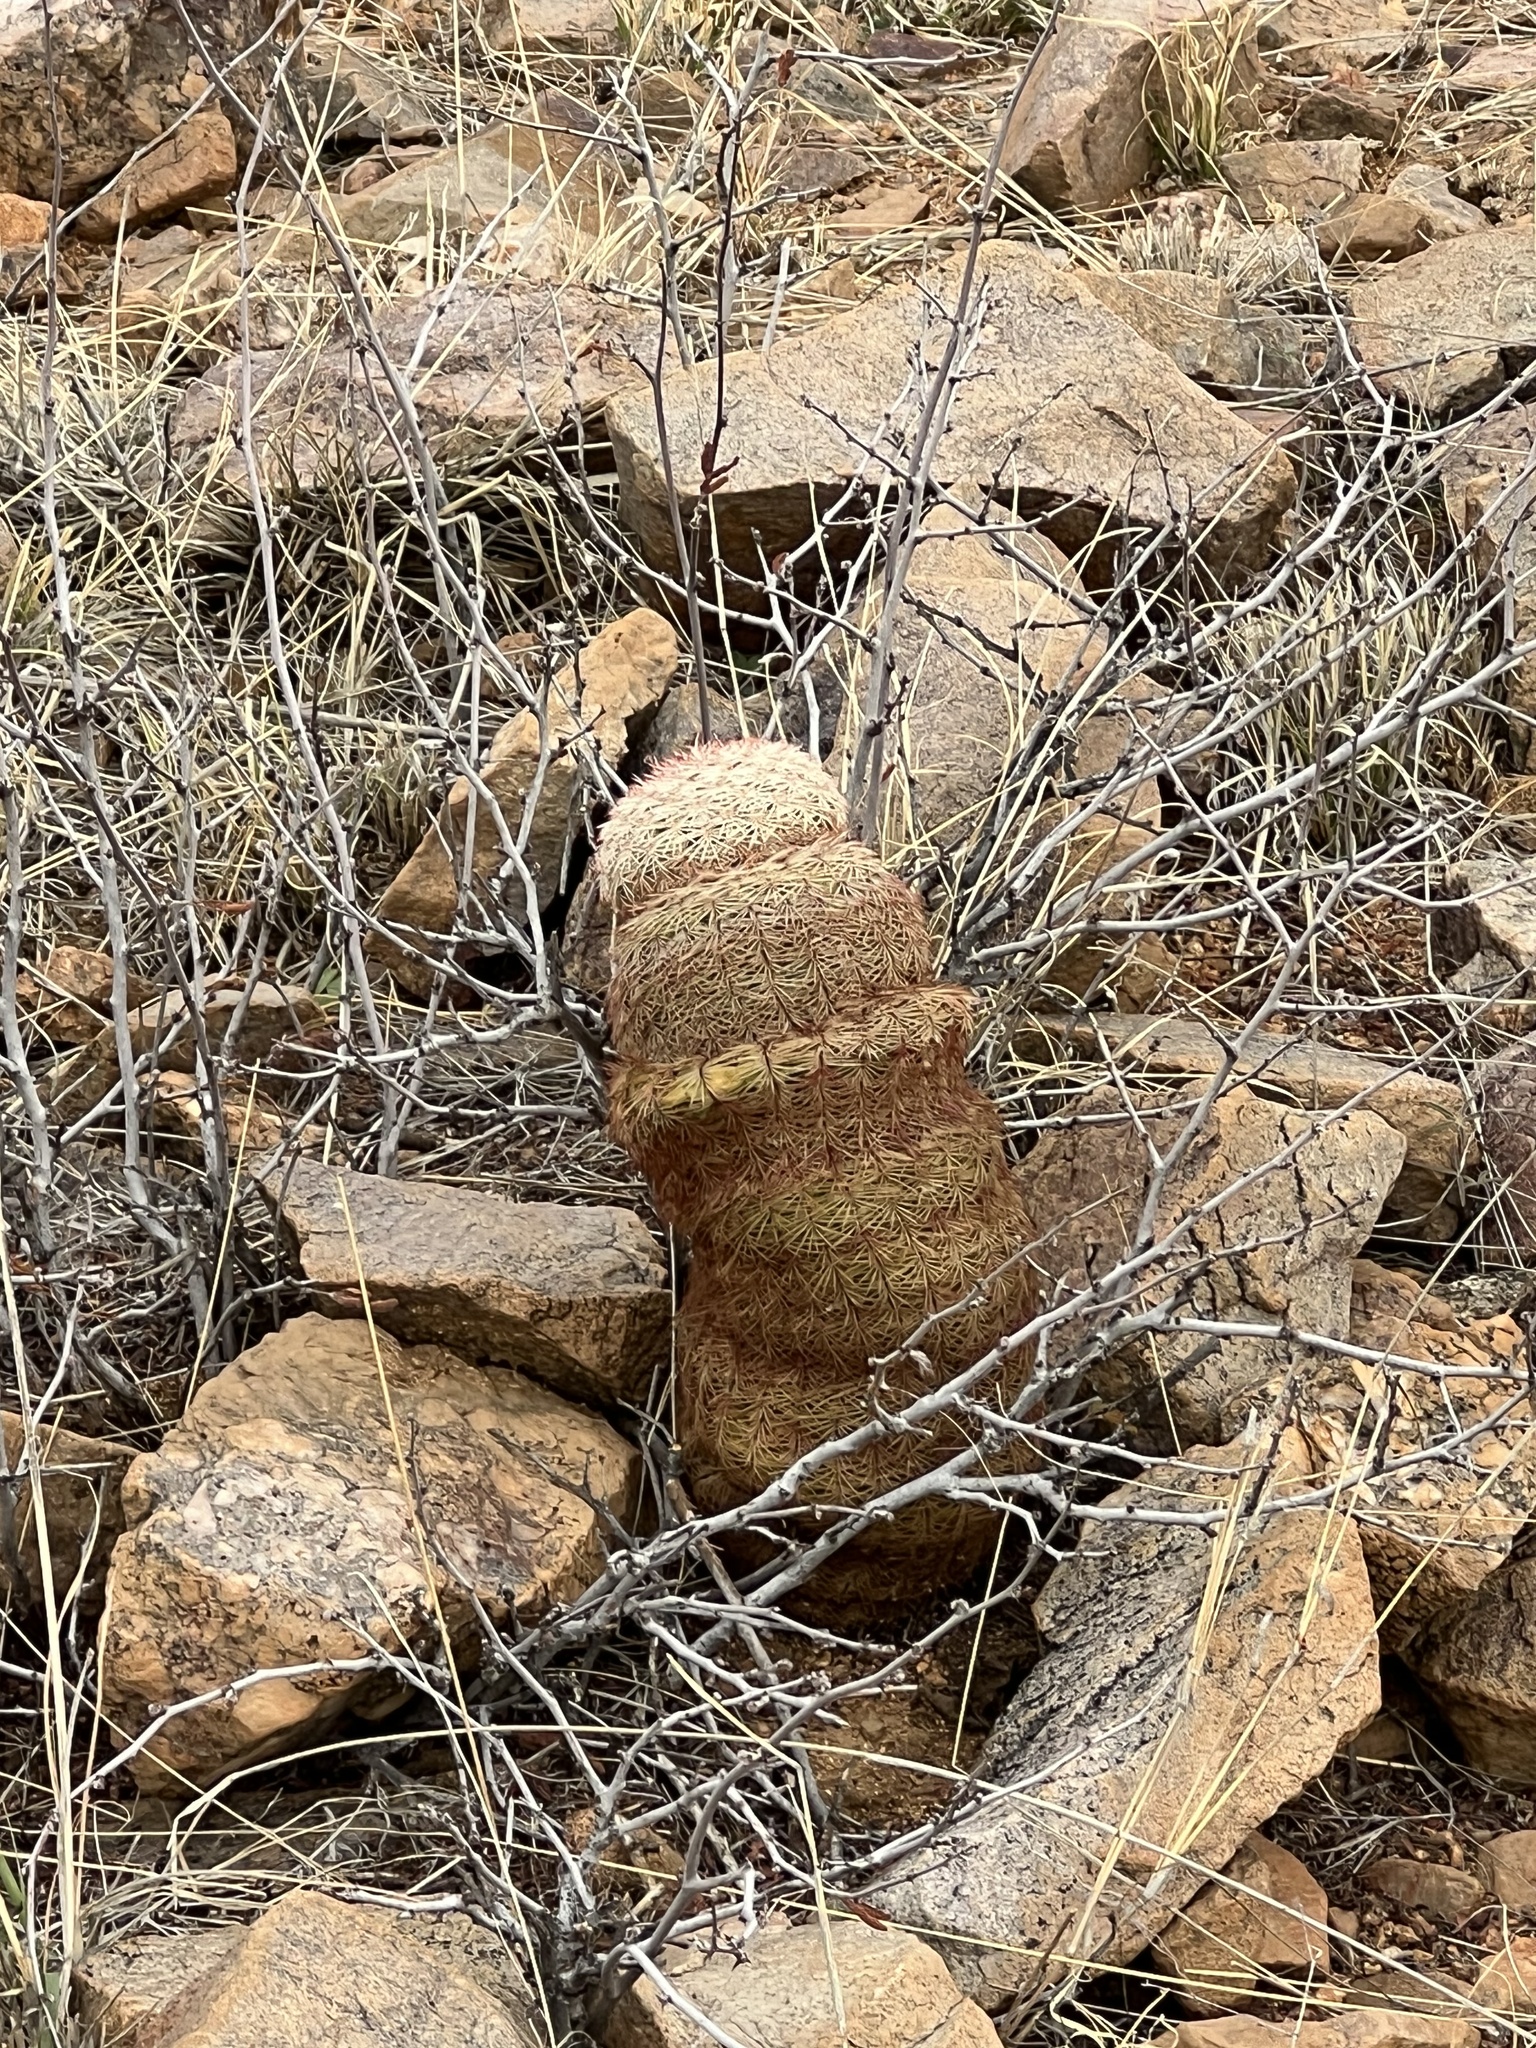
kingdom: Plantae
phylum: Tracheophyta
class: Magnoliopsida
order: Caryophyllales
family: Cactaceae
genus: Echinocereus
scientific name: Echinocereus rigidissimus
